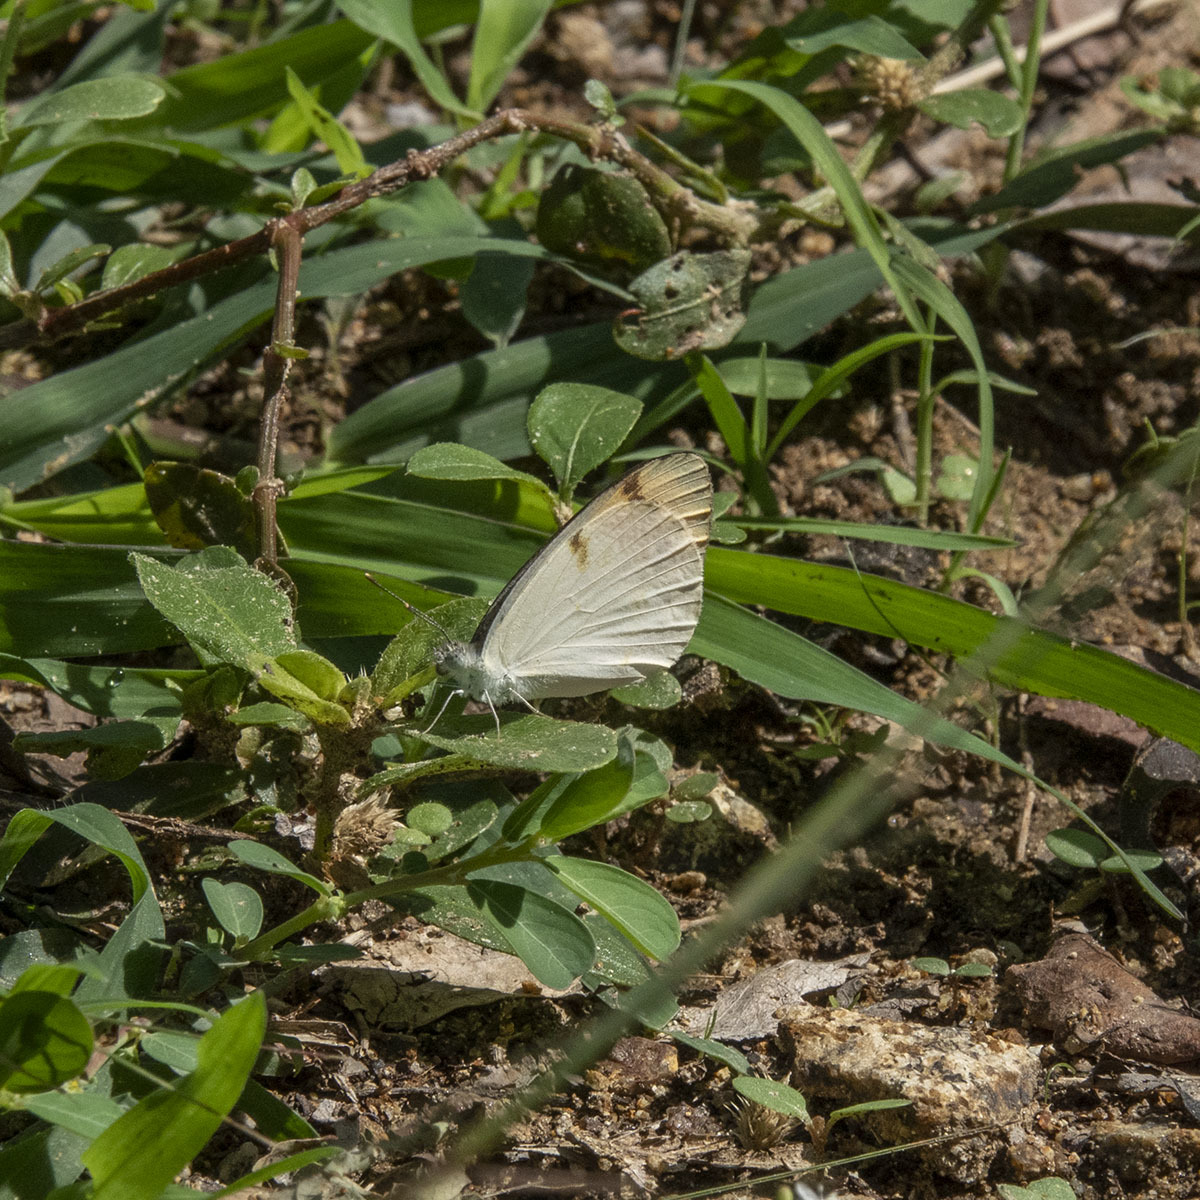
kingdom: Animalia
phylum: Arthropoda
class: Insecta
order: Lepidoptera
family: Pieridae
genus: Colotis
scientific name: Colotis aurora
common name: Plain orange-tip
